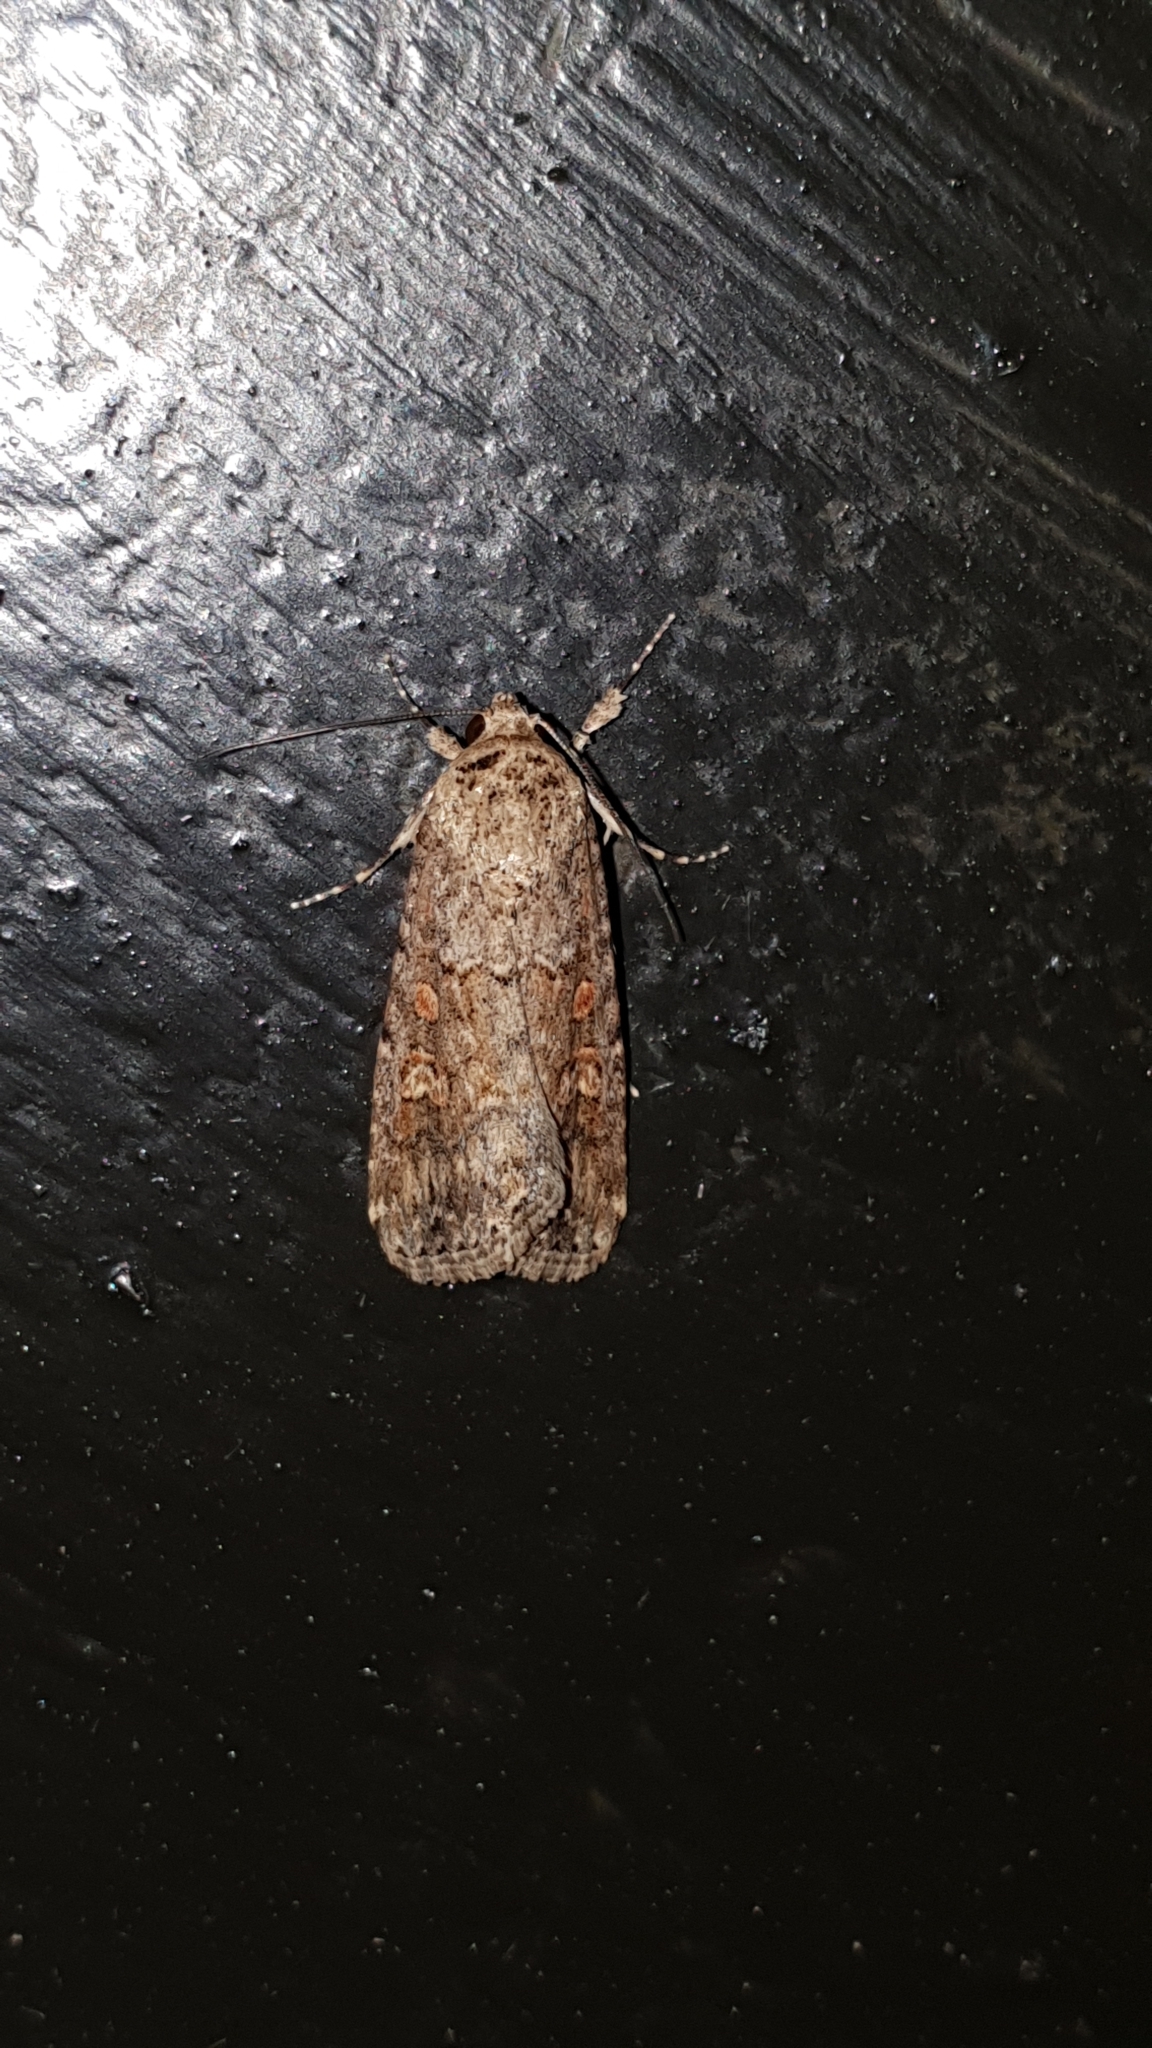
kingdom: Animalia
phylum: Arthropoda
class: Insecta
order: Lepidoptera
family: Noctuidae
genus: Spodoptera
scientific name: Spodoptera exigua
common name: Beet armyworm
